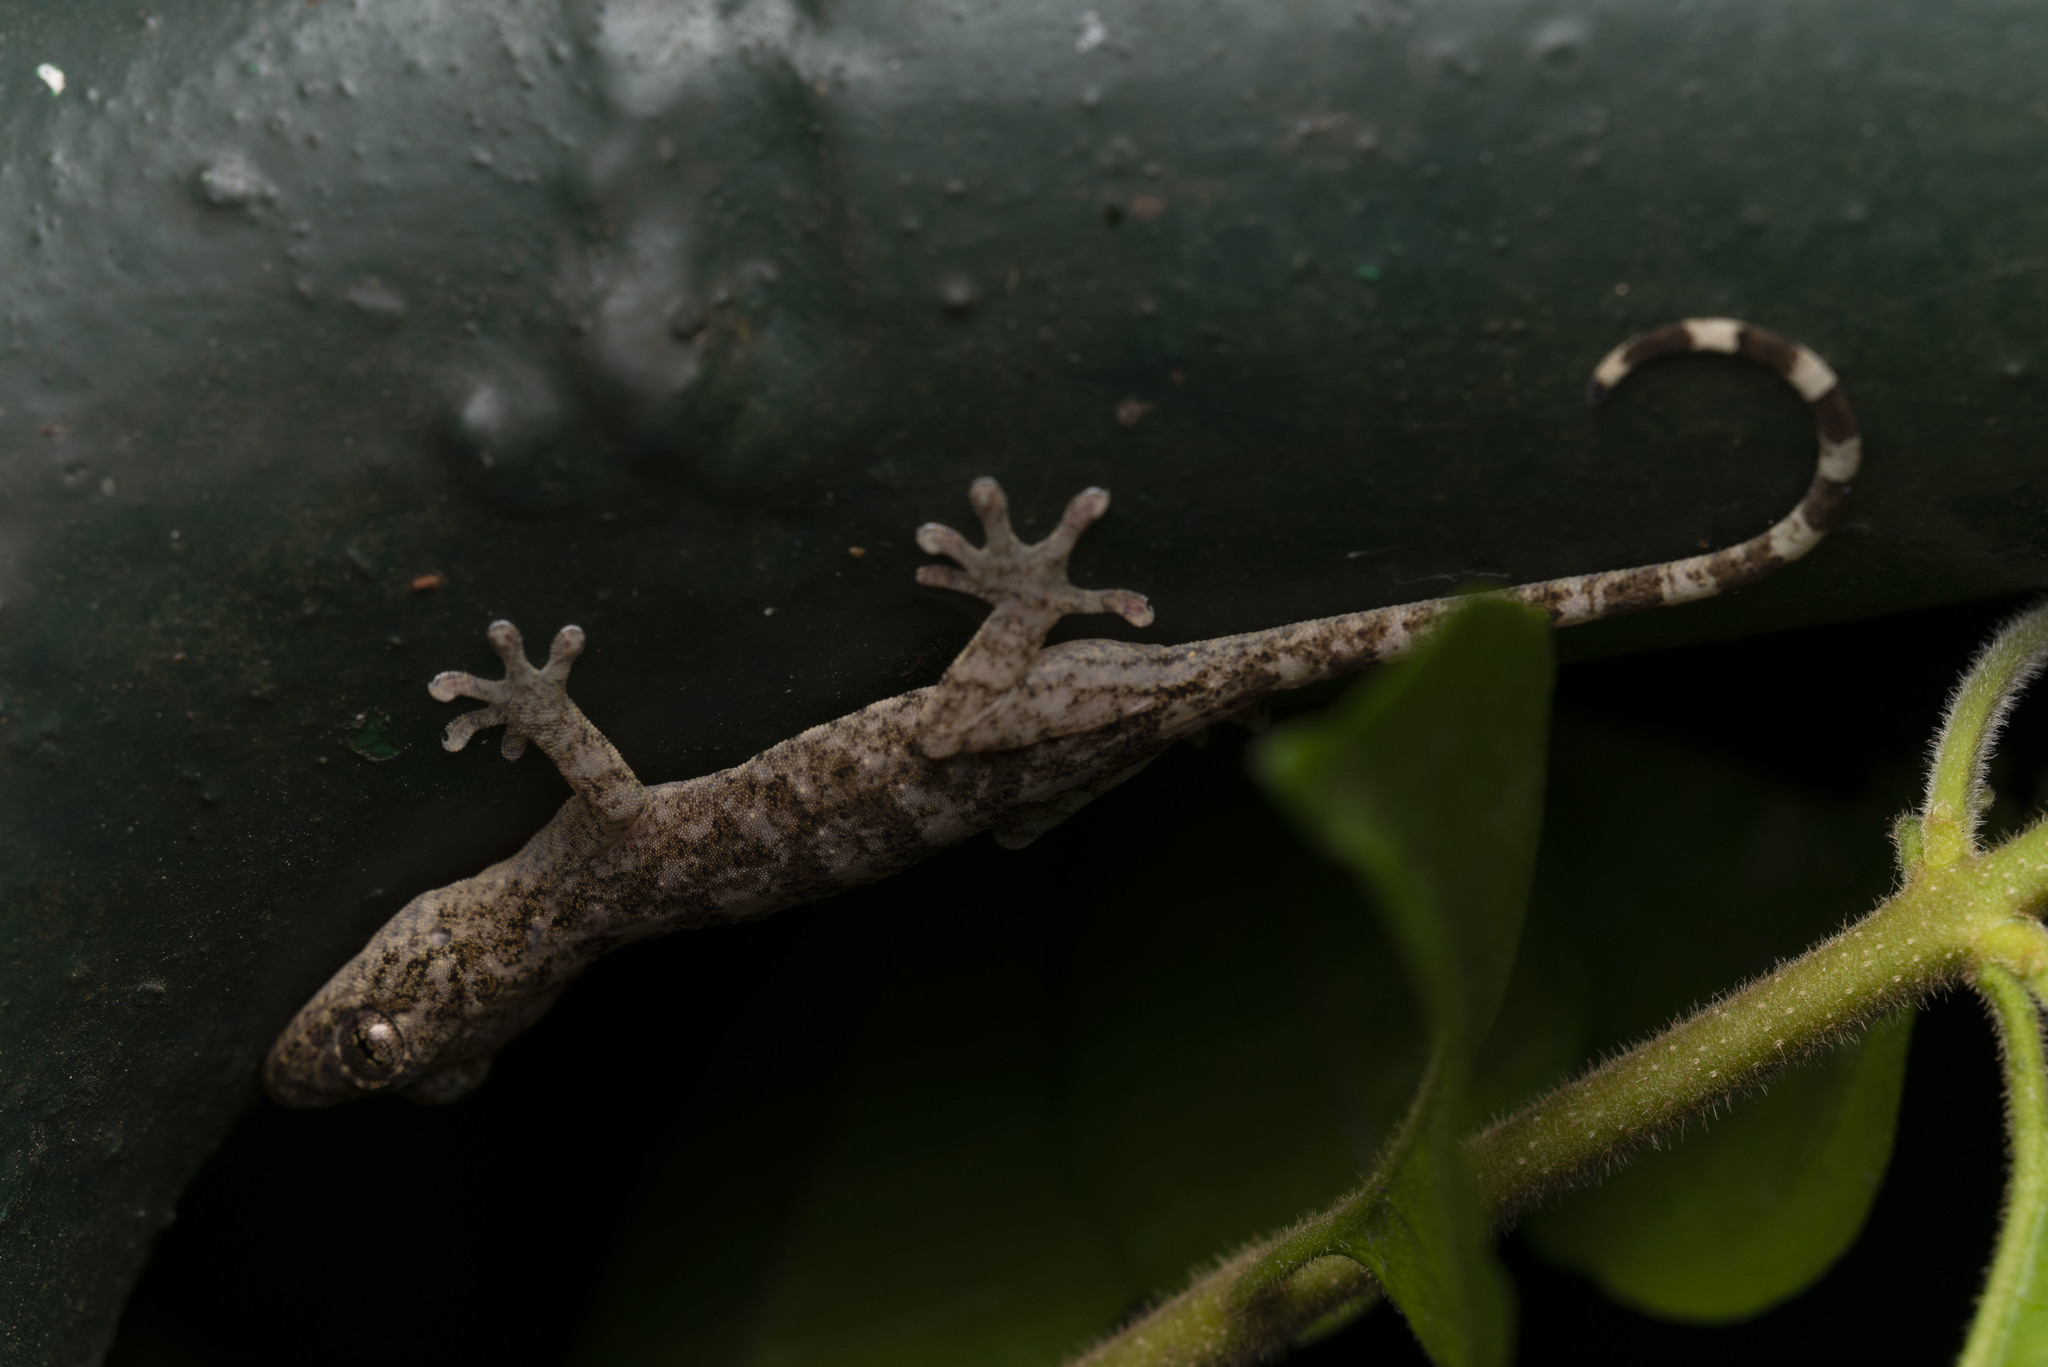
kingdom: Animalia
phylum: Chordata
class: Squamata
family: Gekkonidae
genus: Gekko
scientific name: Gekko chinensis
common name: Gray's chinese gecko
